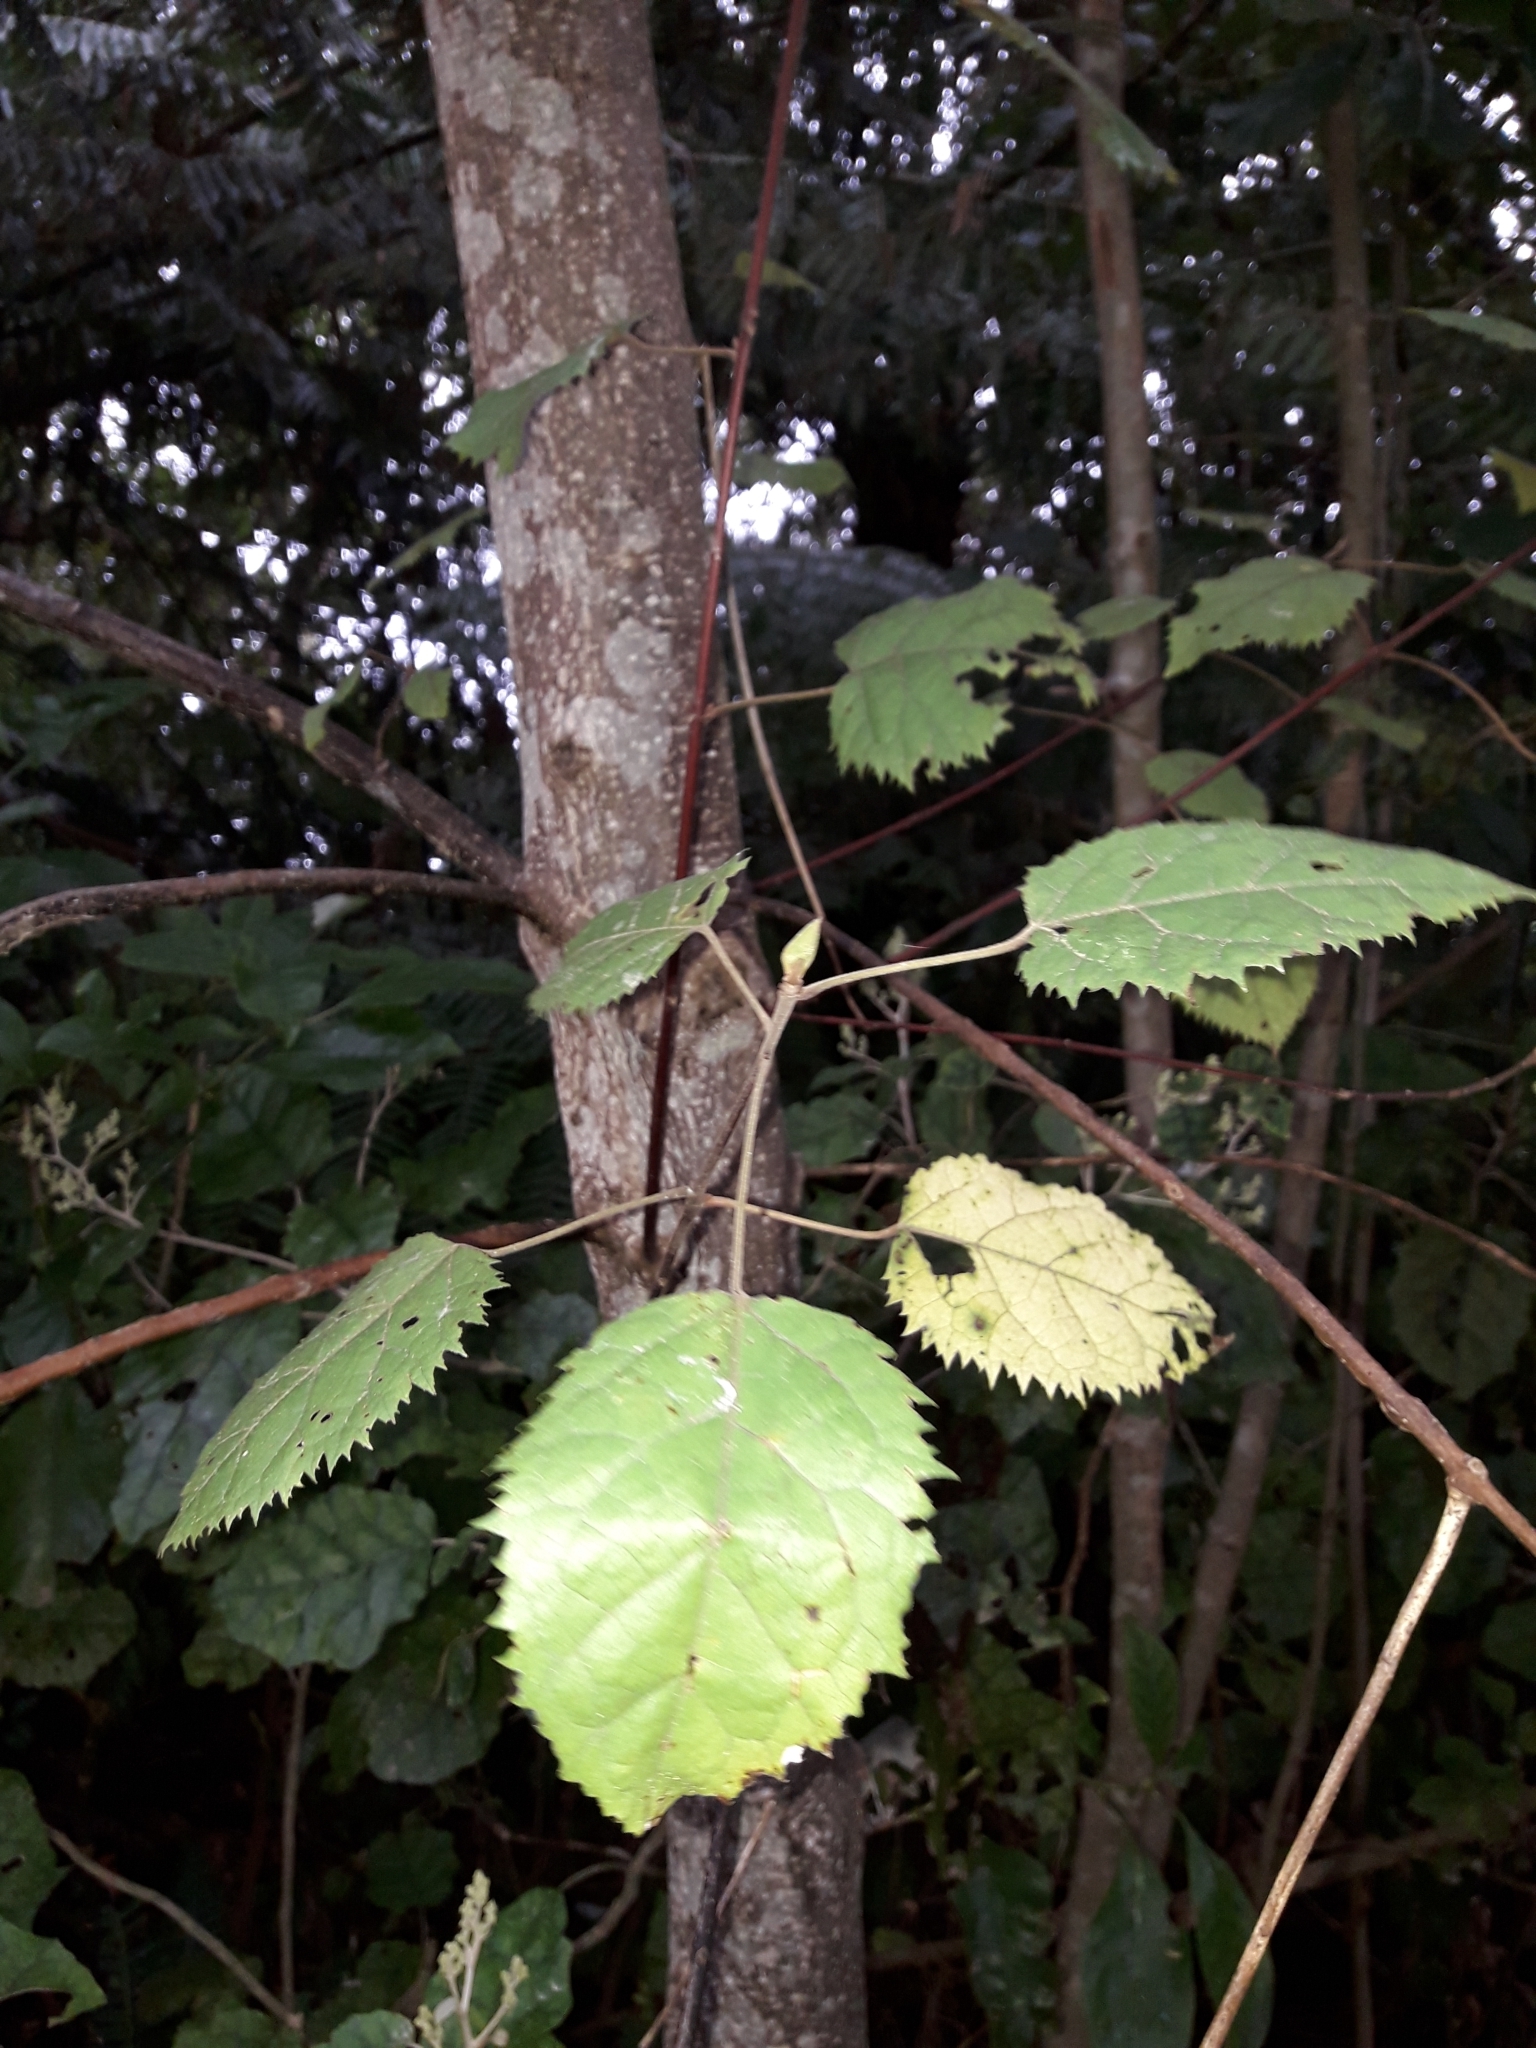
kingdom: Plantae
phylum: Tracheophyta
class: Magnoliopsida
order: Oxalidales
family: Elaeocarpaceae
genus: Aristotelia
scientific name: Aristotelia serrata
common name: New zealand wineberry
